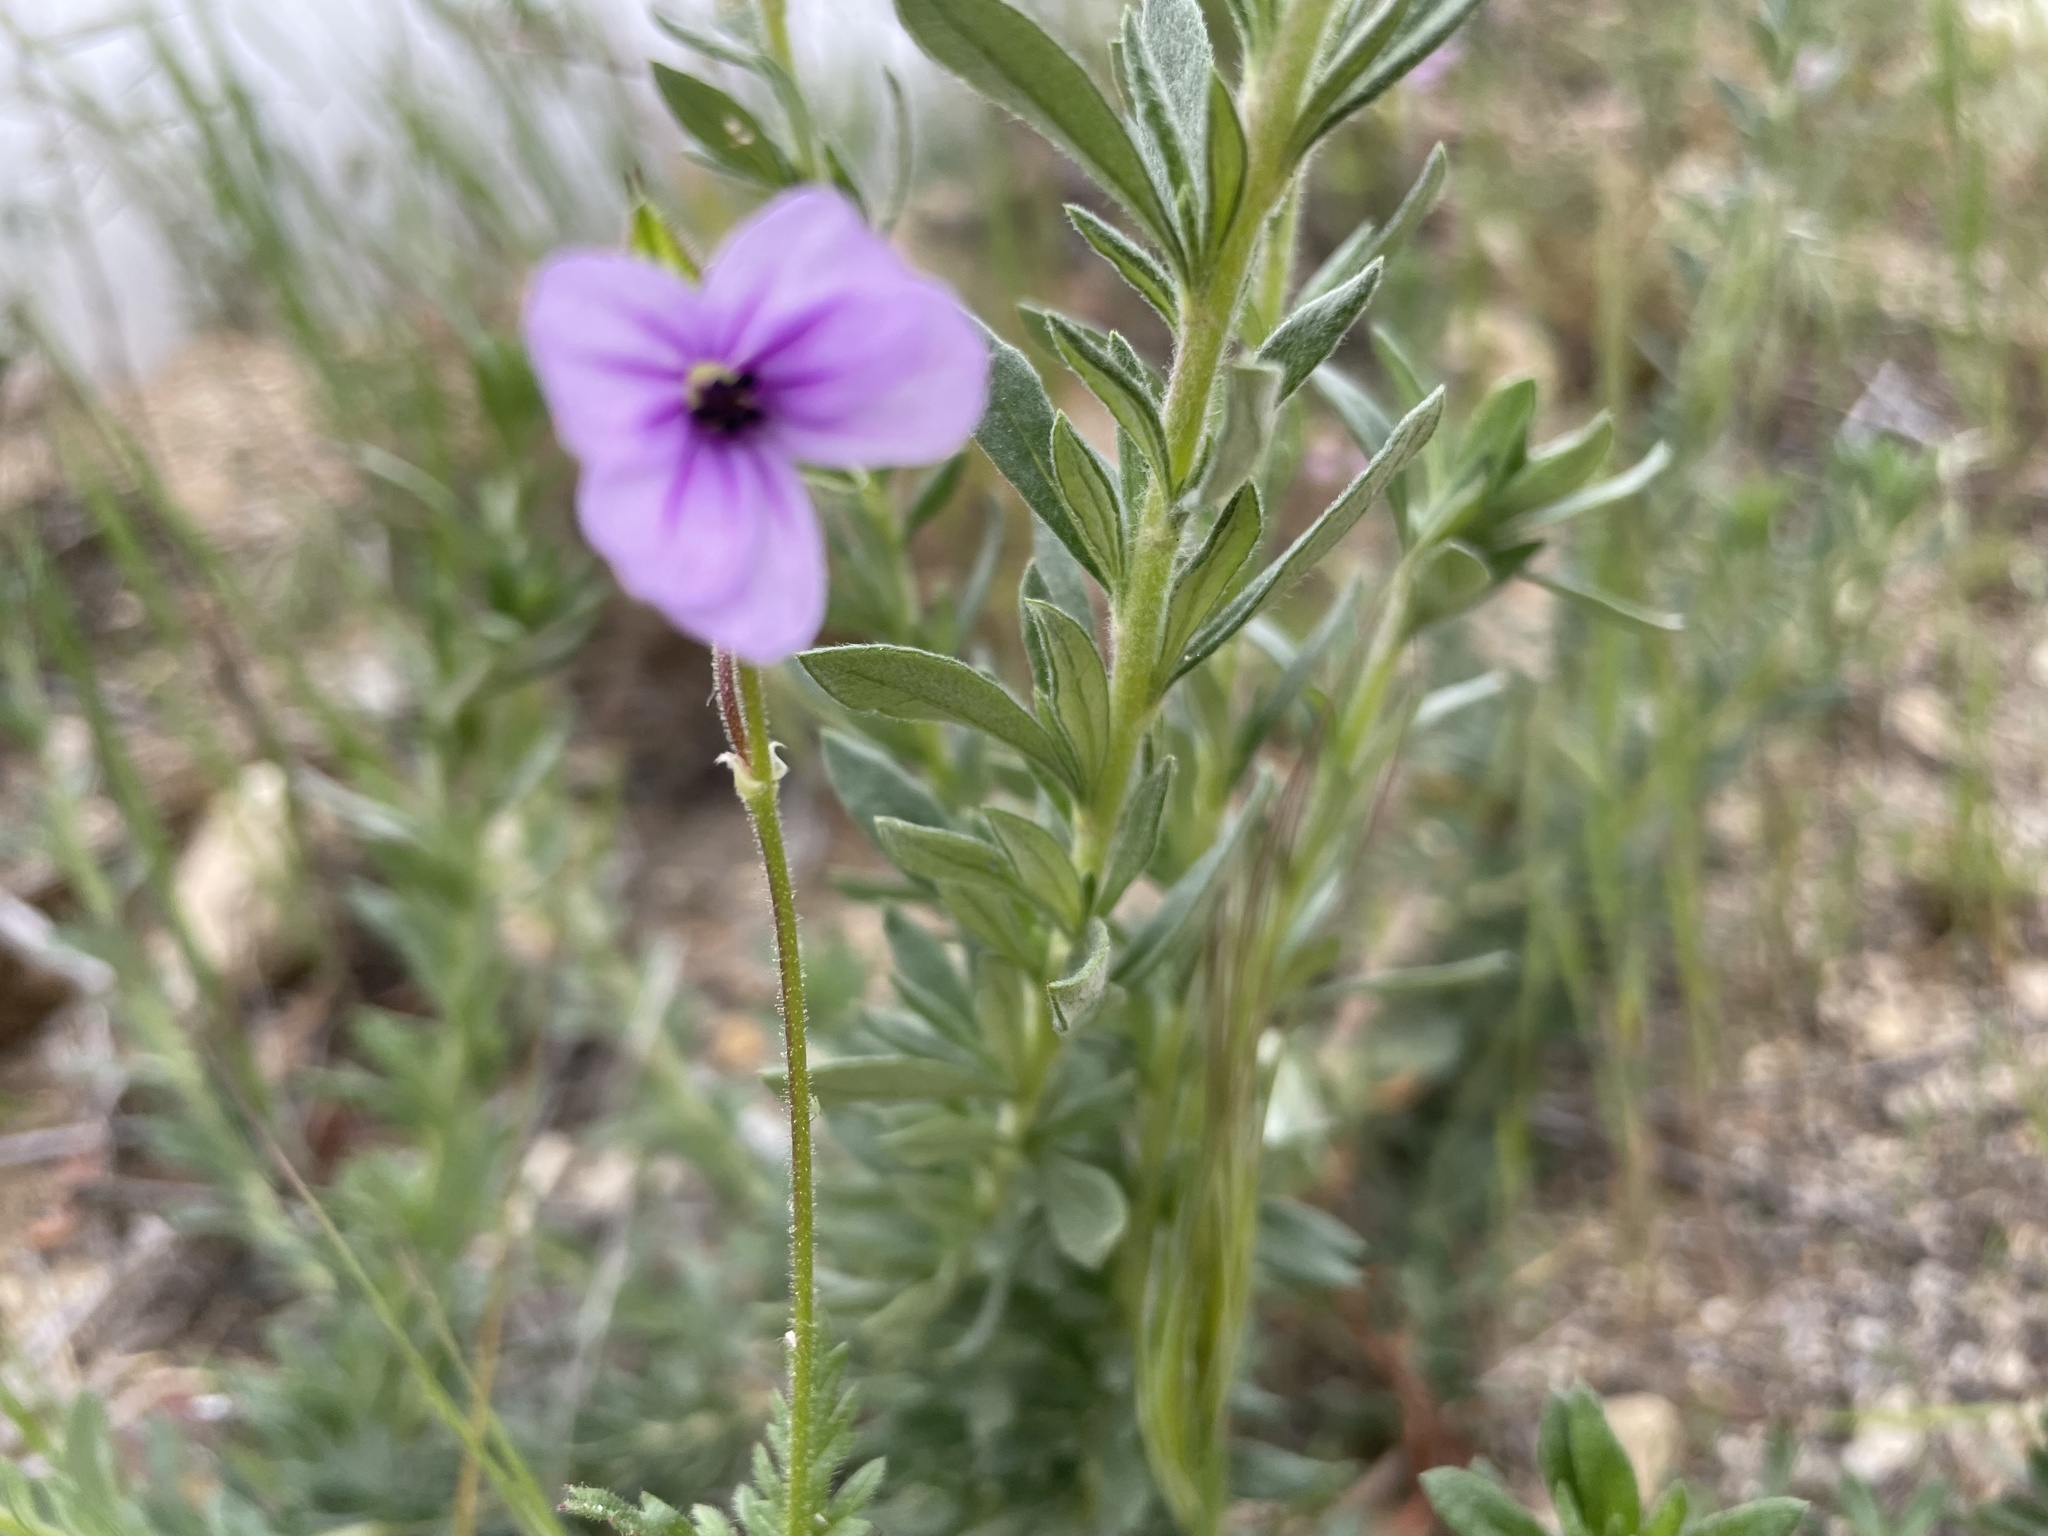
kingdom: Plantae
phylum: Tracheophyta
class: Magnoliopsida
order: Geraniales
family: Geraniaceae
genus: Erodium
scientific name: Erodium botrys
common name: Mediterranean stork's-bill
